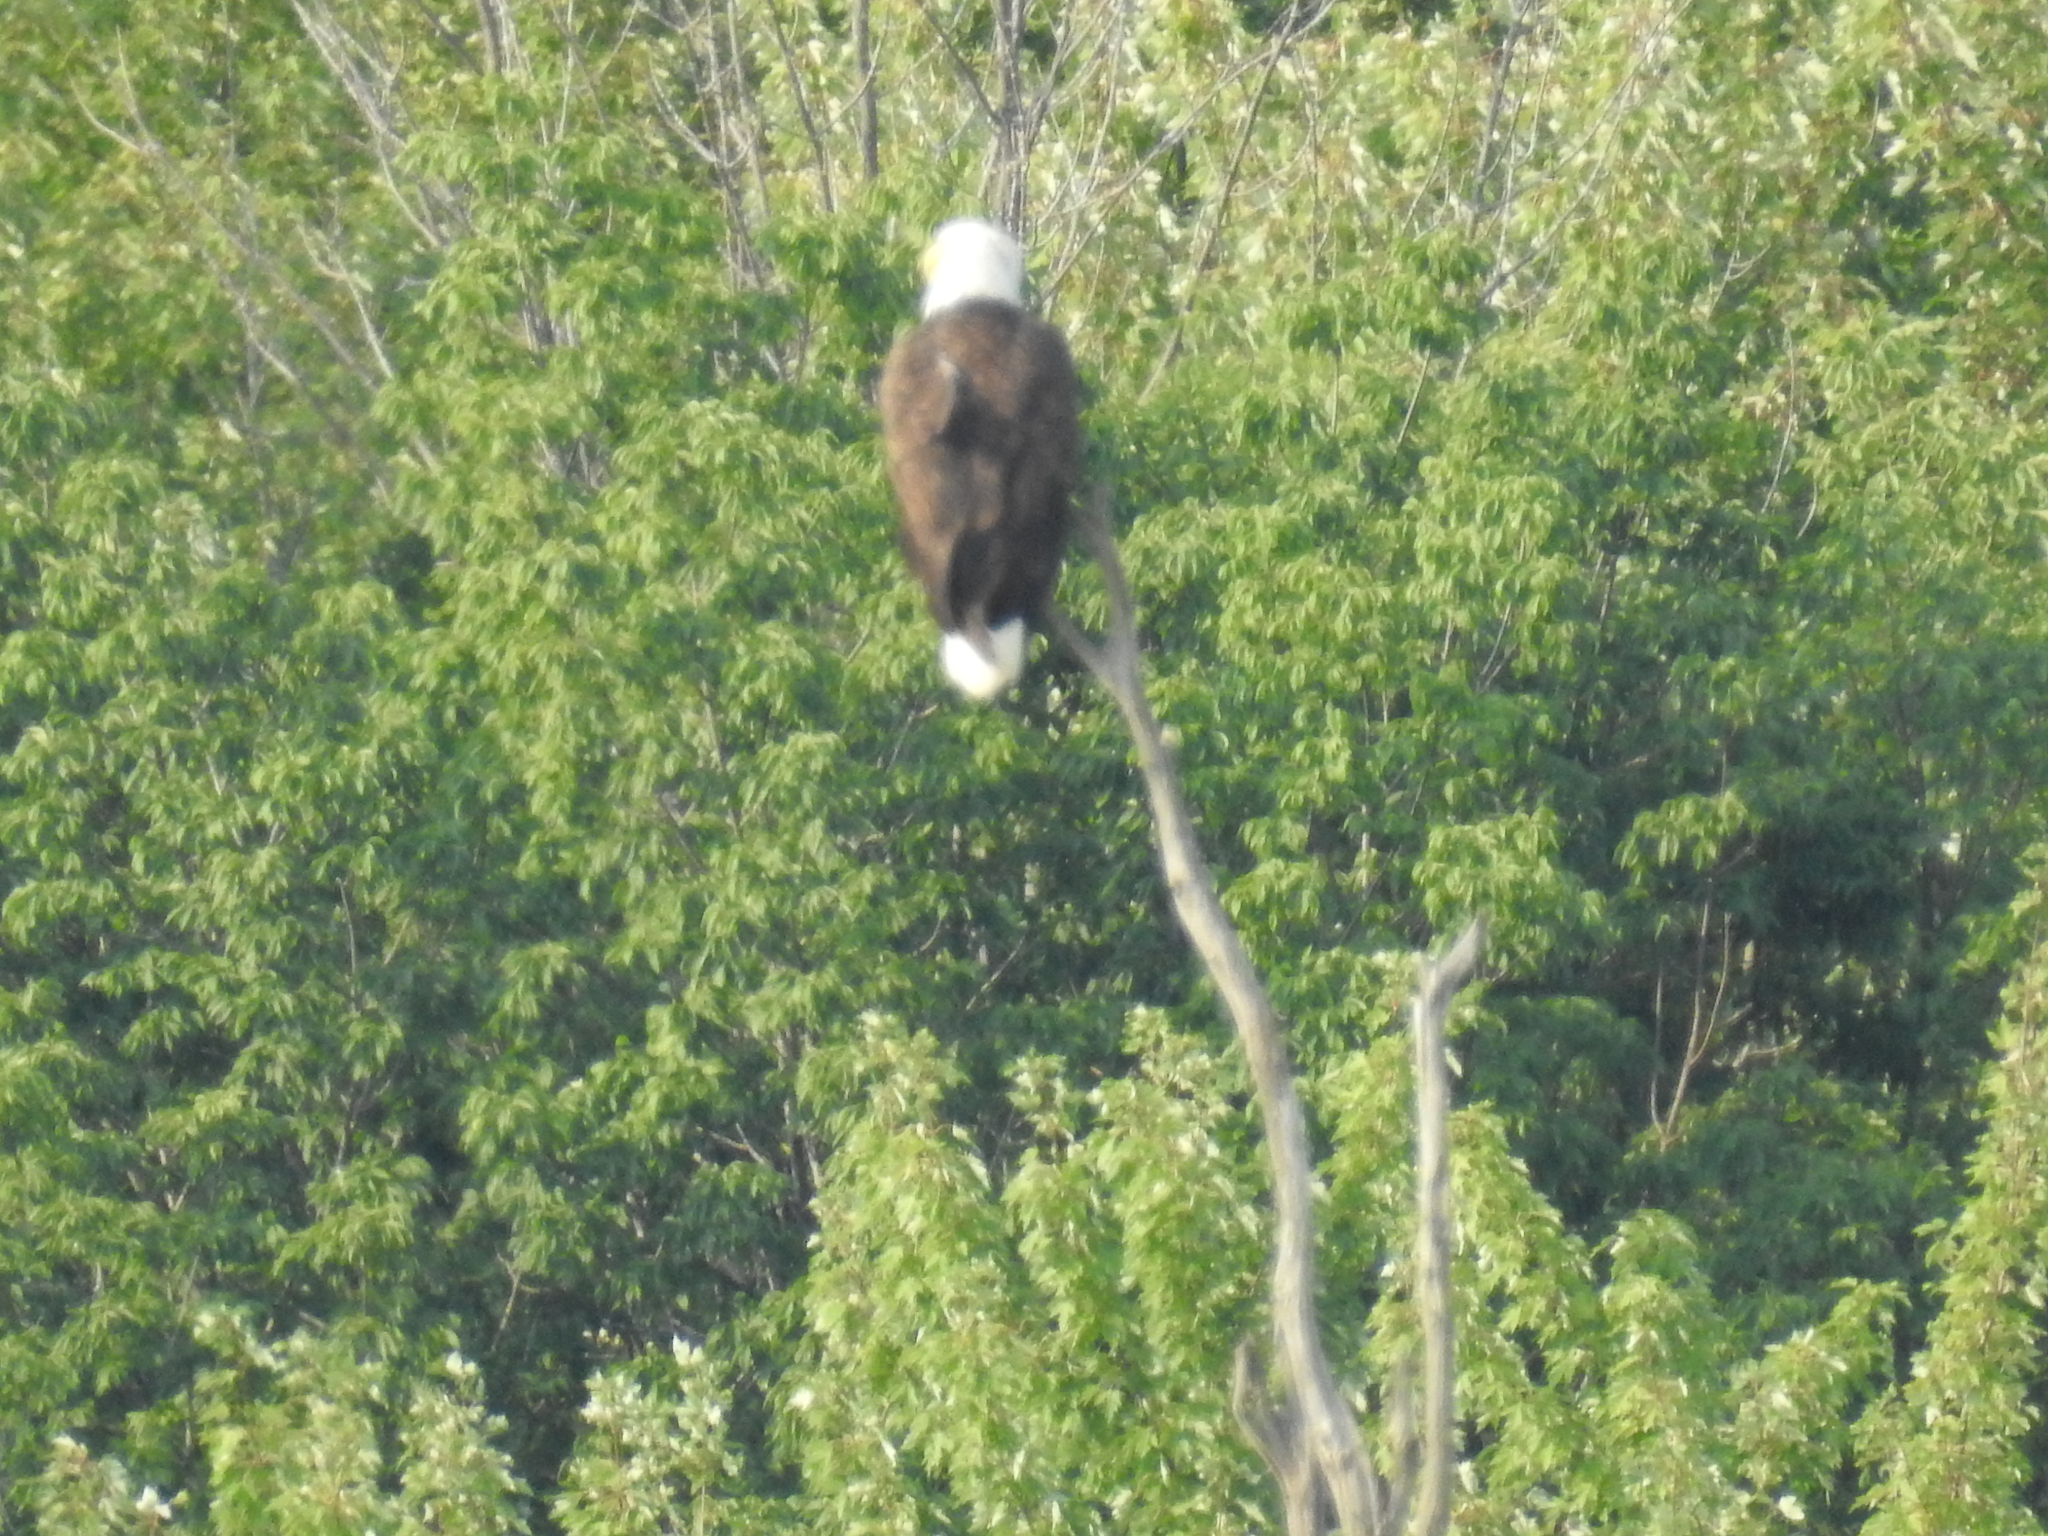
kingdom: Animalia
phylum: Chordata
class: Aves
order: Accipitriformes
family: Accipitridae
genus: Haliaeetus
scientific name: Haliaeetus leucocephalus
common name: Bald eagle
